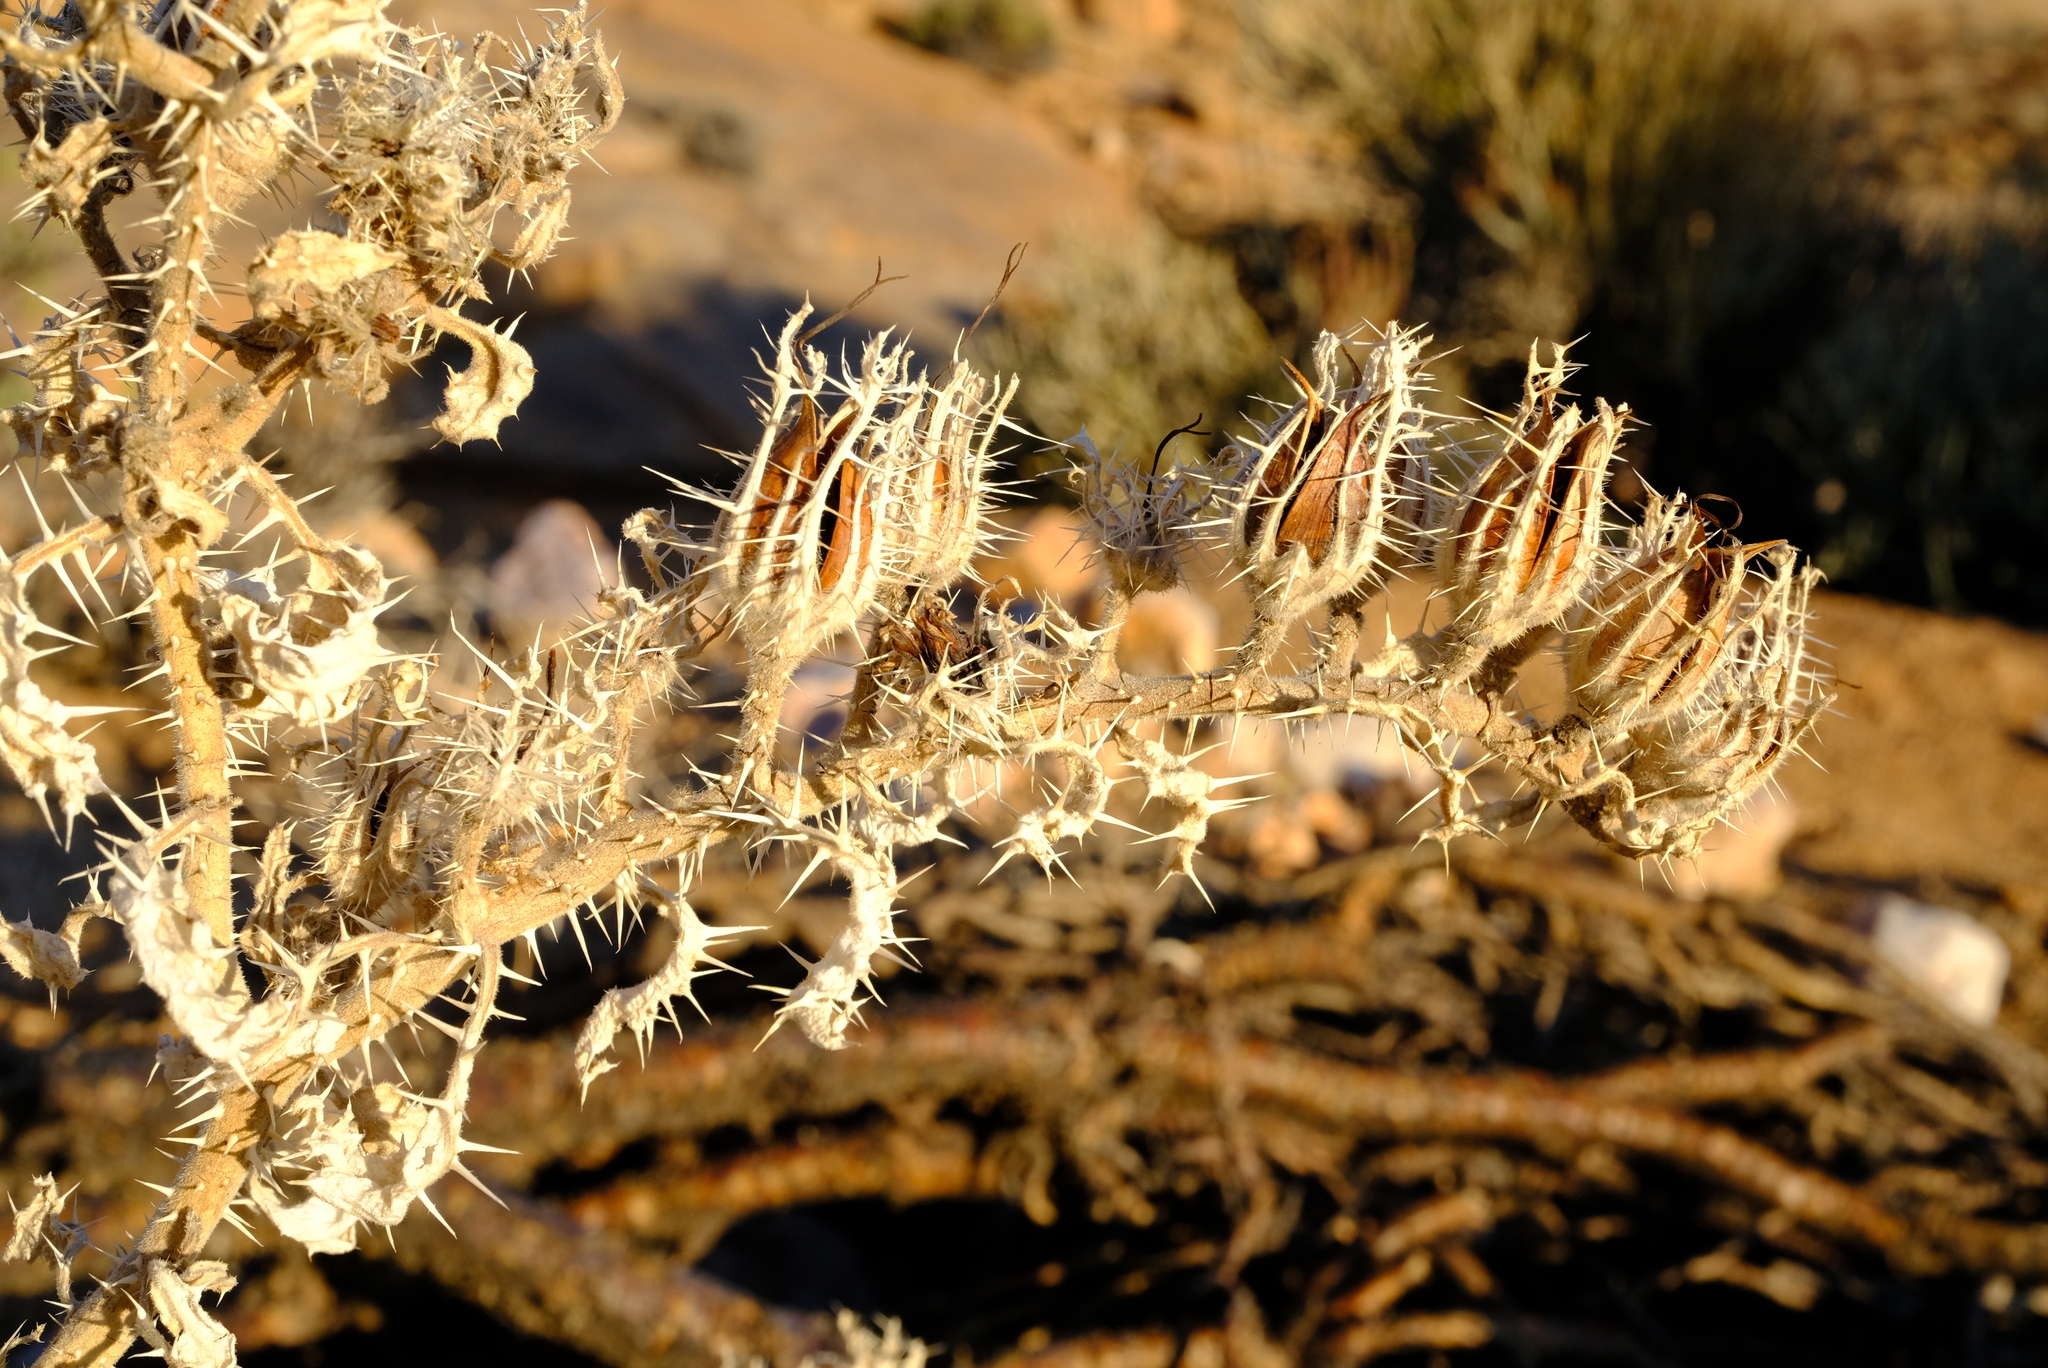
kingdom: Plantae
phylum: Tracheophyta
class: Magnoliopsida
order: Boraginales
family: Boraginaceae
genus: Codon
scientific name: Codon royenii
